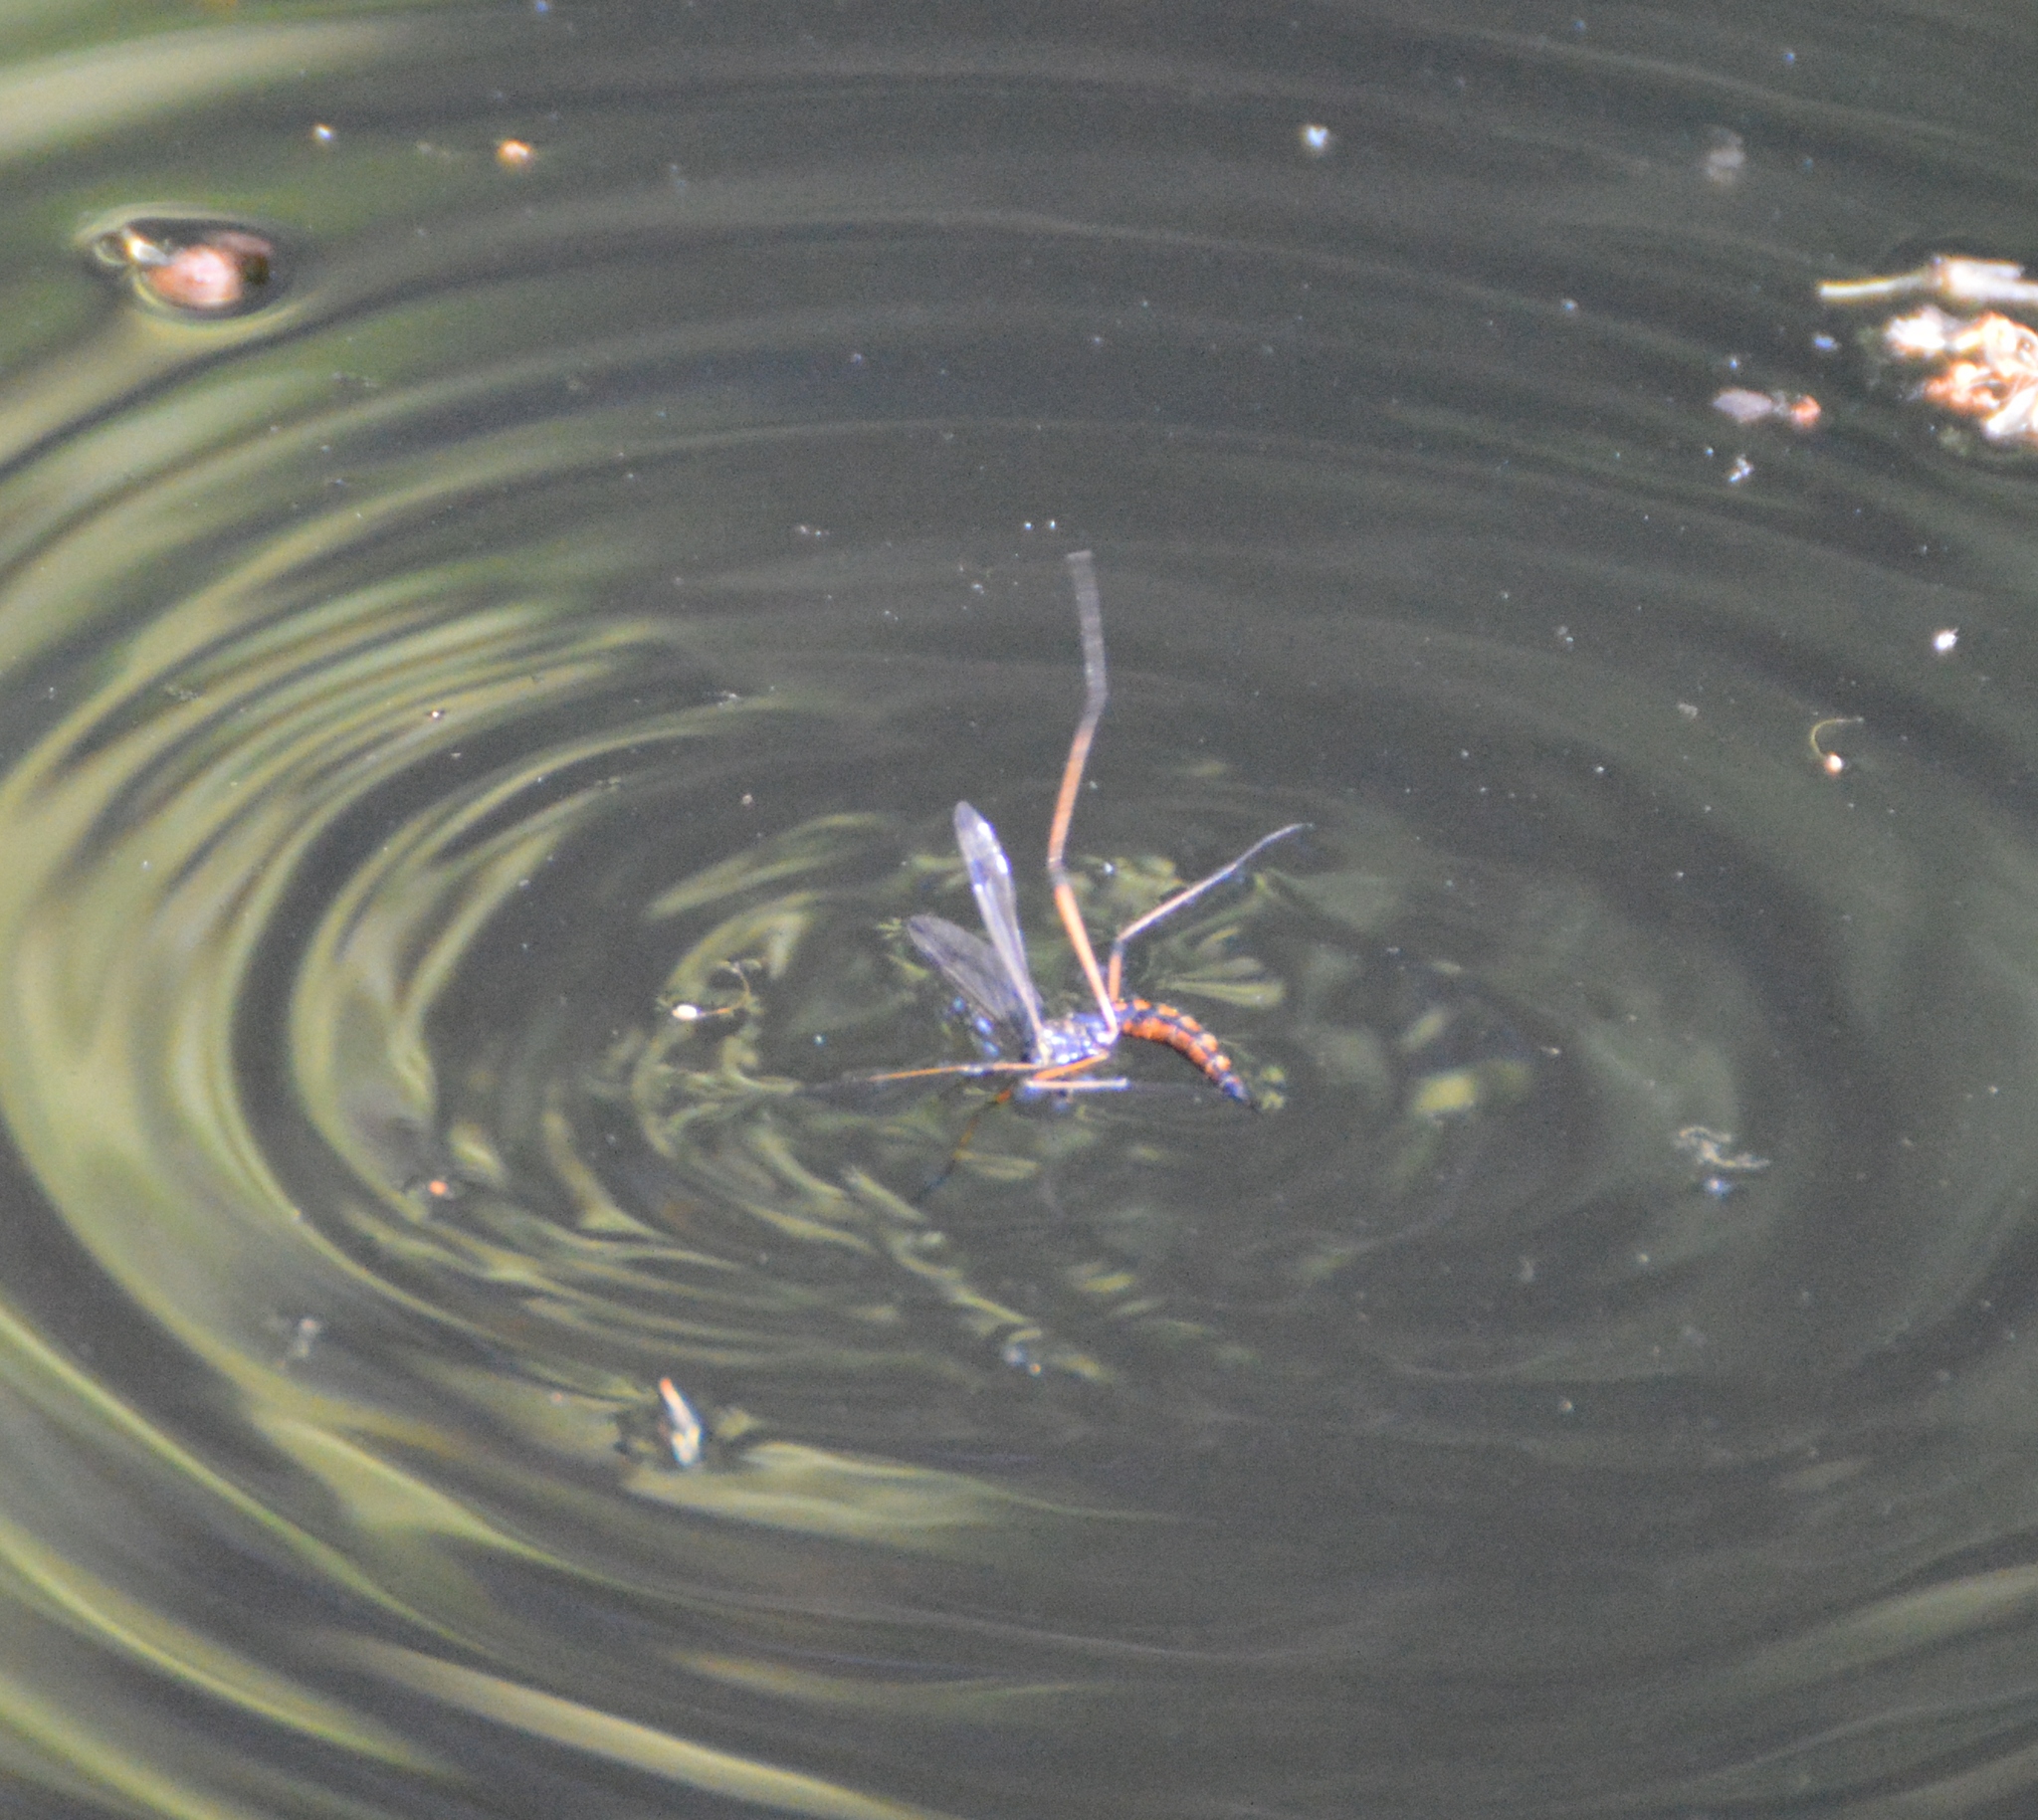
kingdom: Animalia
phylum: Arthropoda
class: Insecta
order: Diptera
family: Tipulidae
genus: Dictenidia
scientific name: Dictenidia bimaculata
